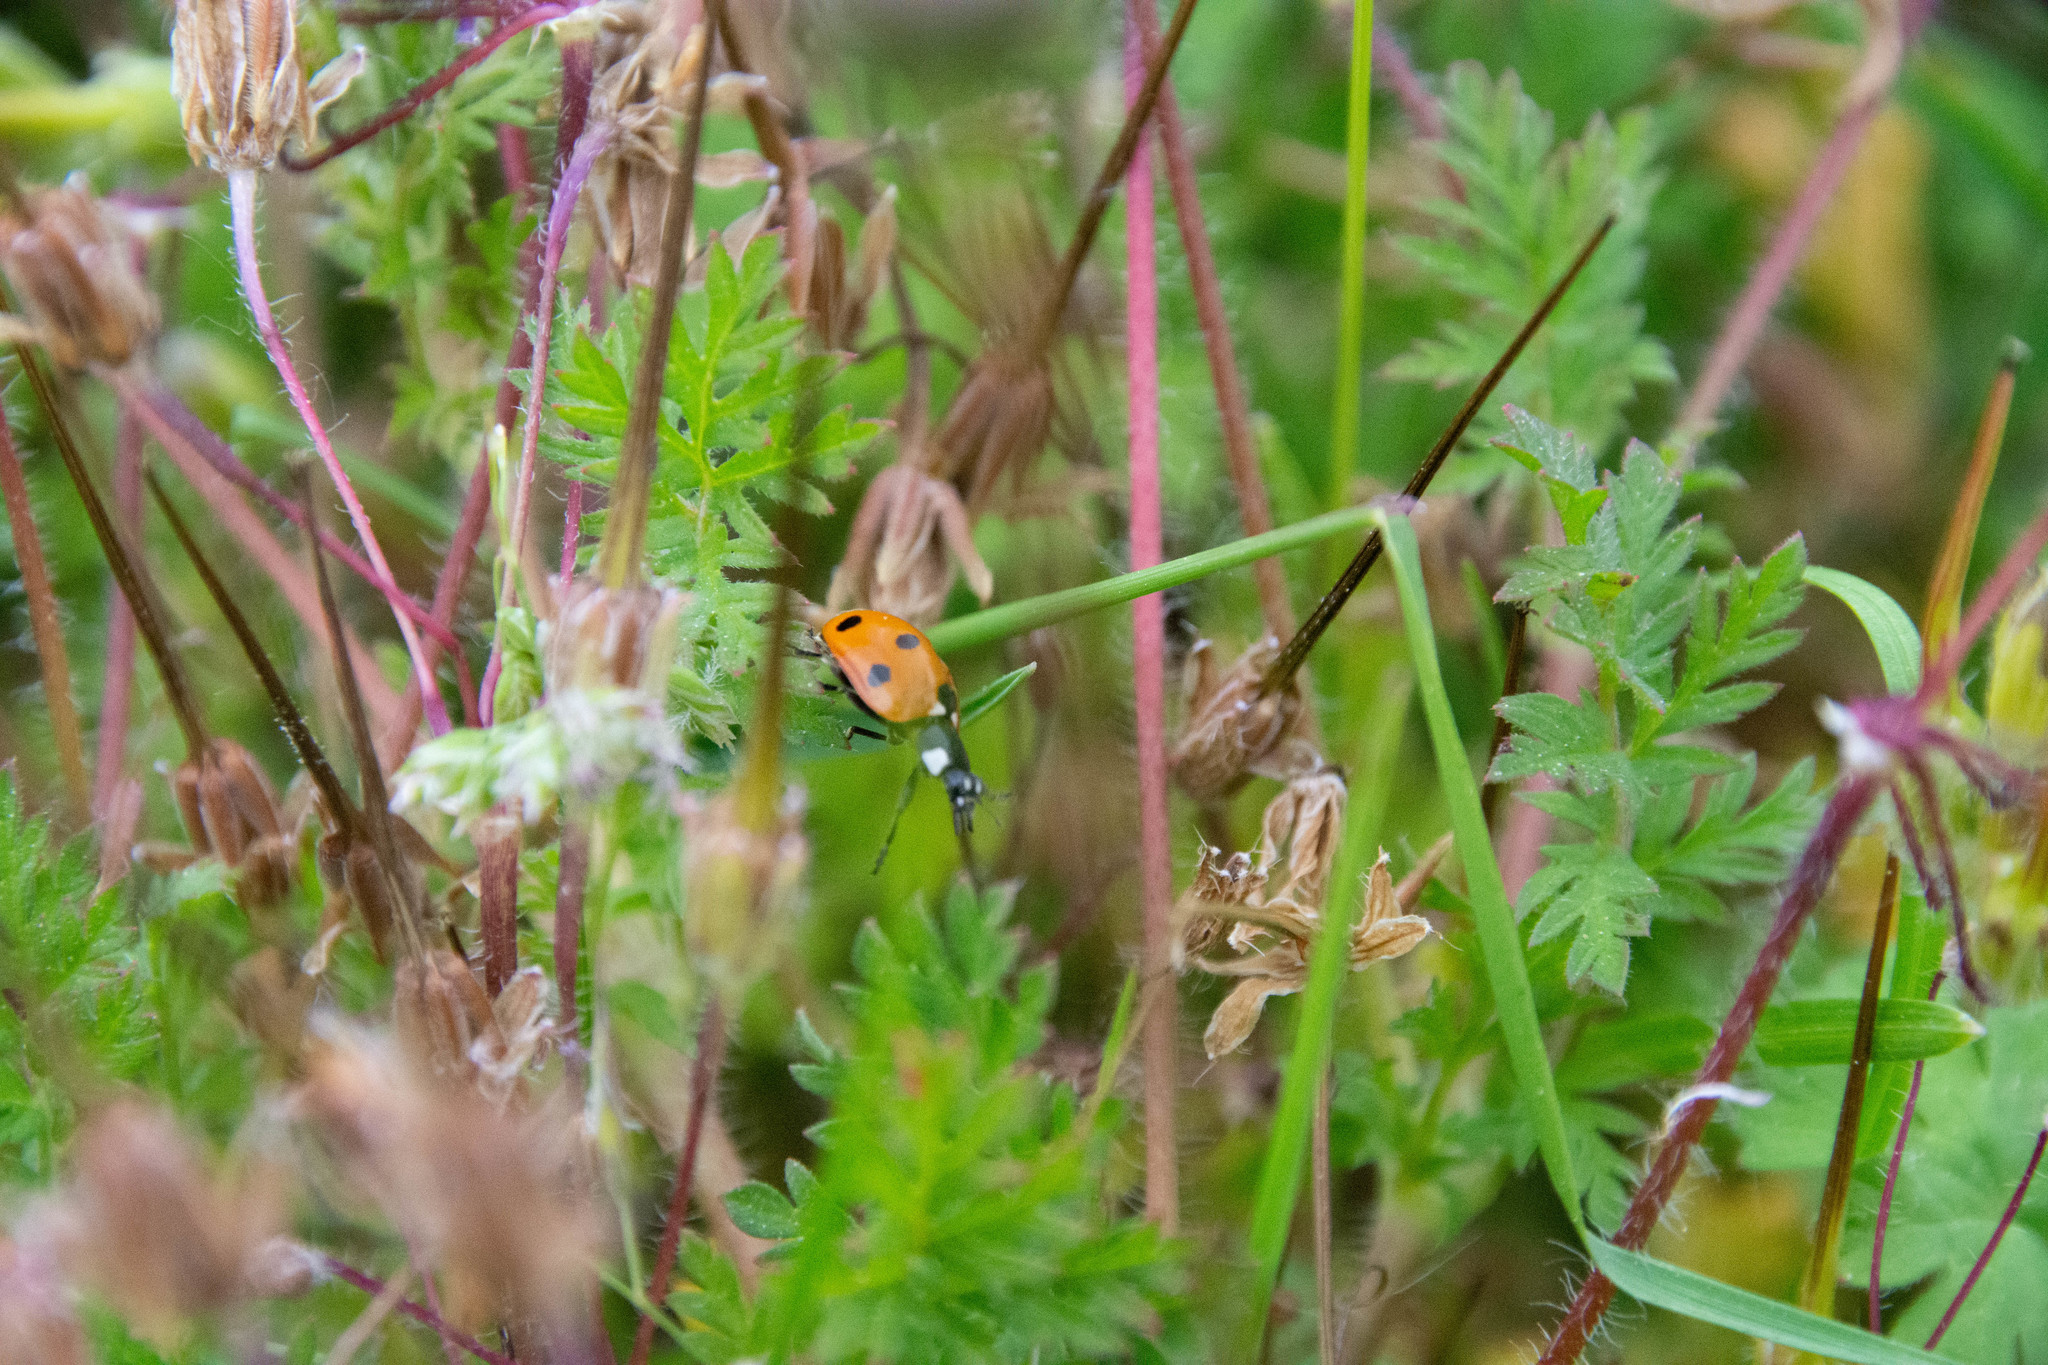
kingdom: Animalia
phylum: Arthropoda
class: Insecta
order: Coleoptera
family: Coccinellidae
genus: Coccinella
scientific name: Coccinella septempunctata
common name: Sevenspotted lady beetle
